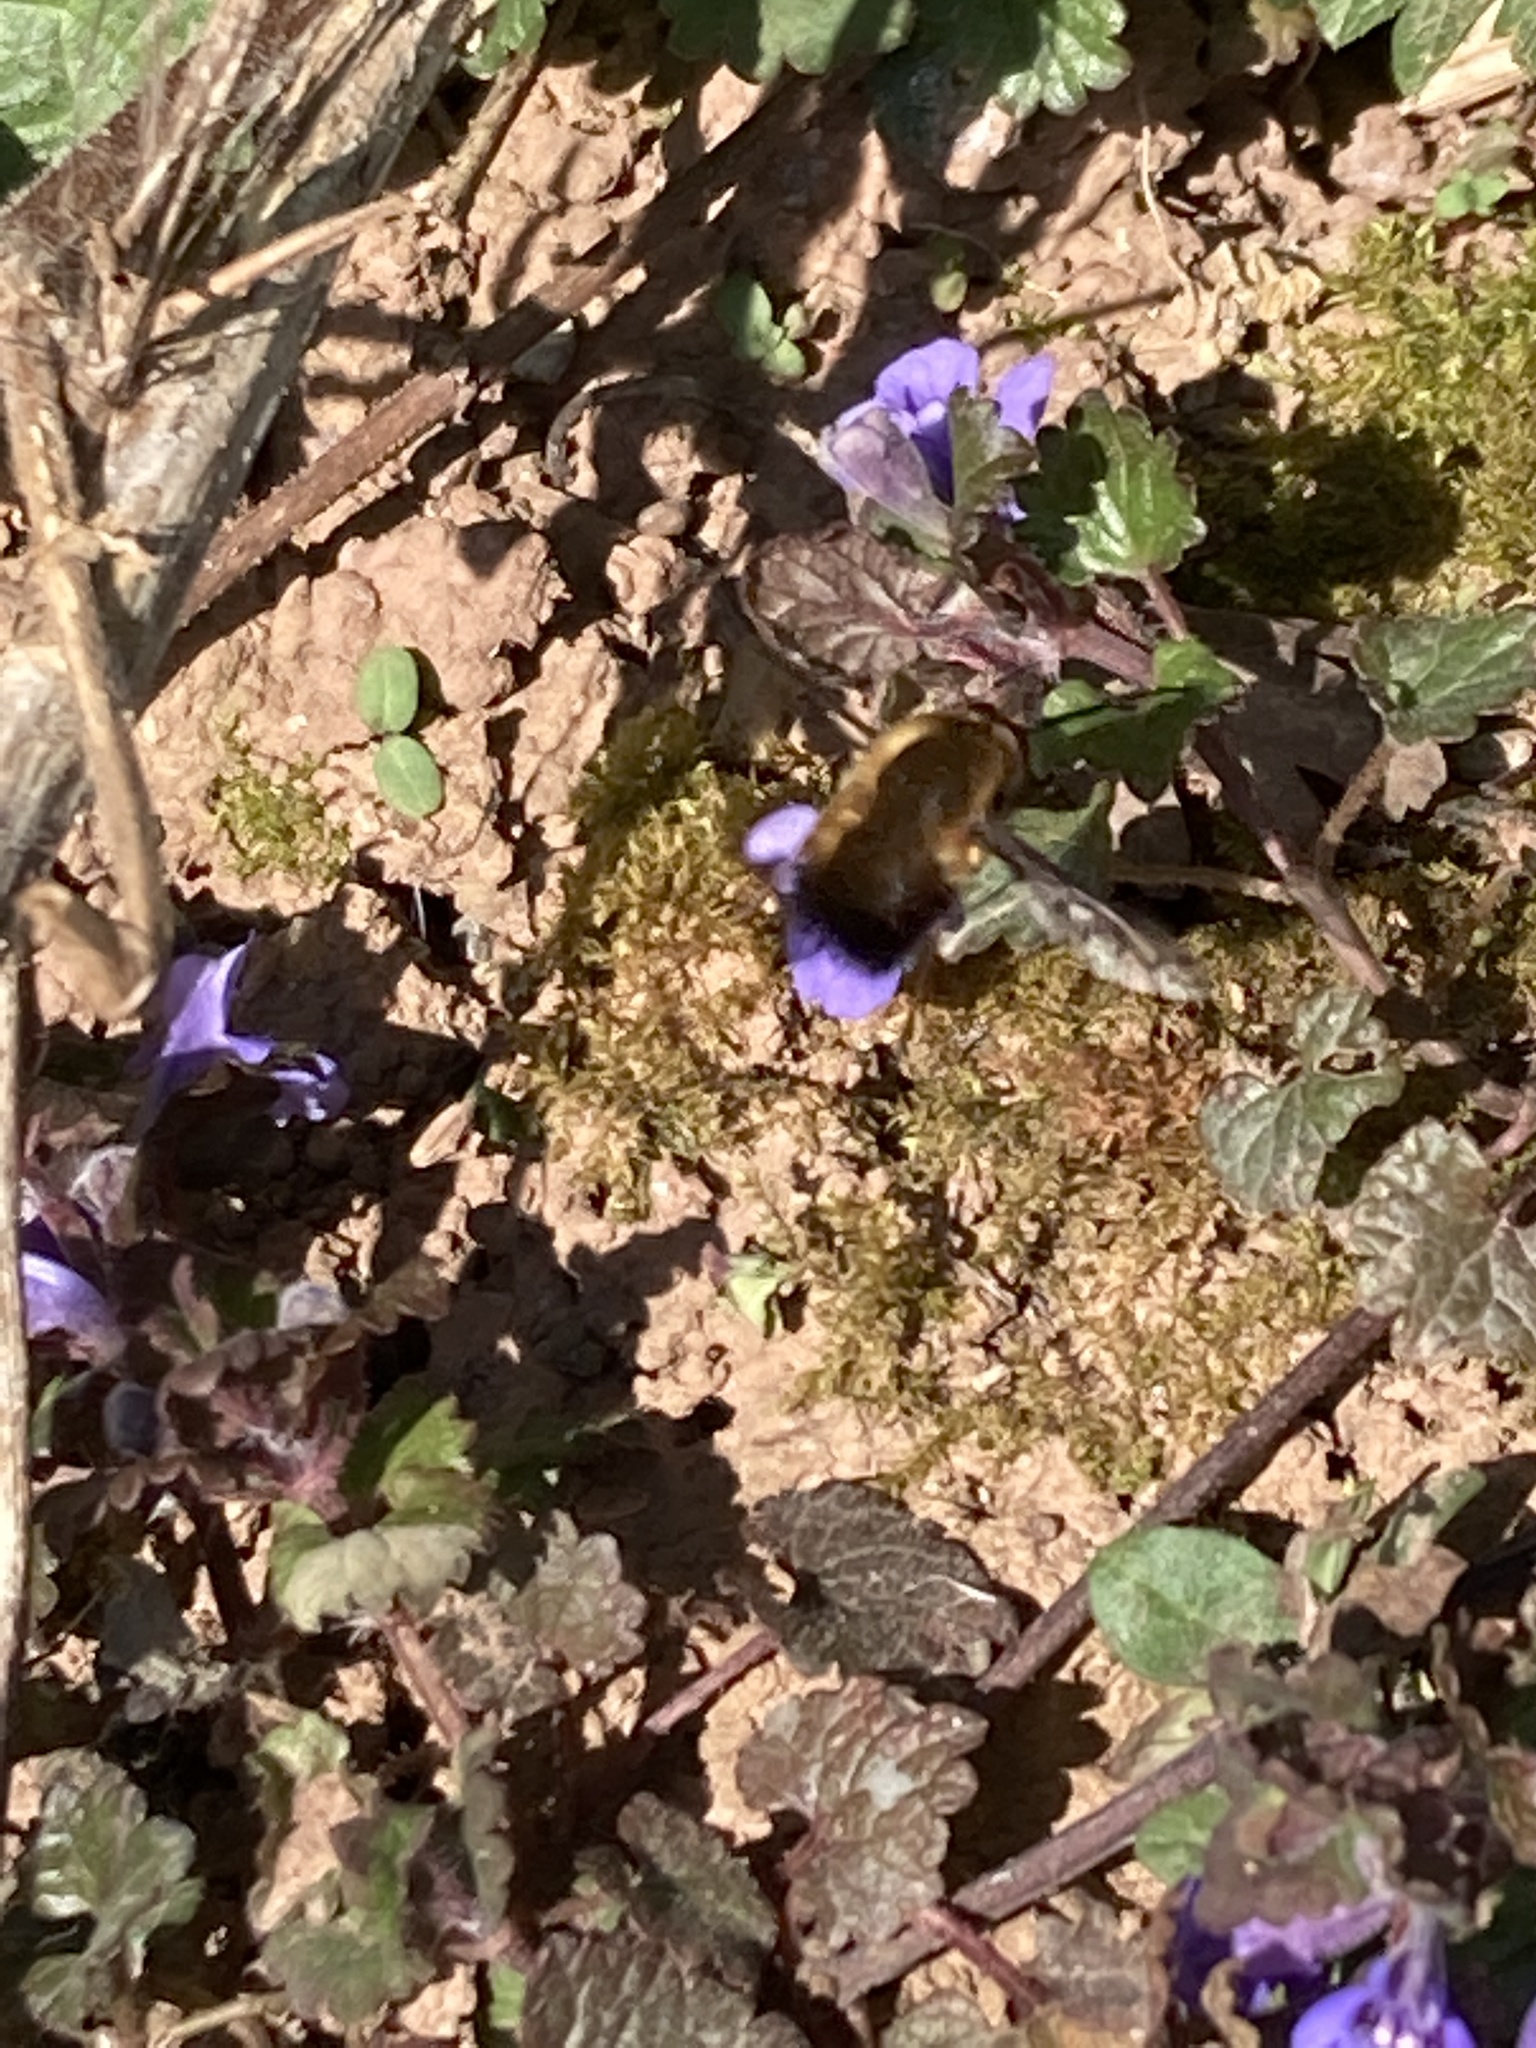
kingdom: Animalia
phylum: Arthropoda
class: Insecta
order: Diptera
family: Bombyliidae
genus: Bombylius
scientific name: Bombylius discolor
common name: Dotted bee-fly
